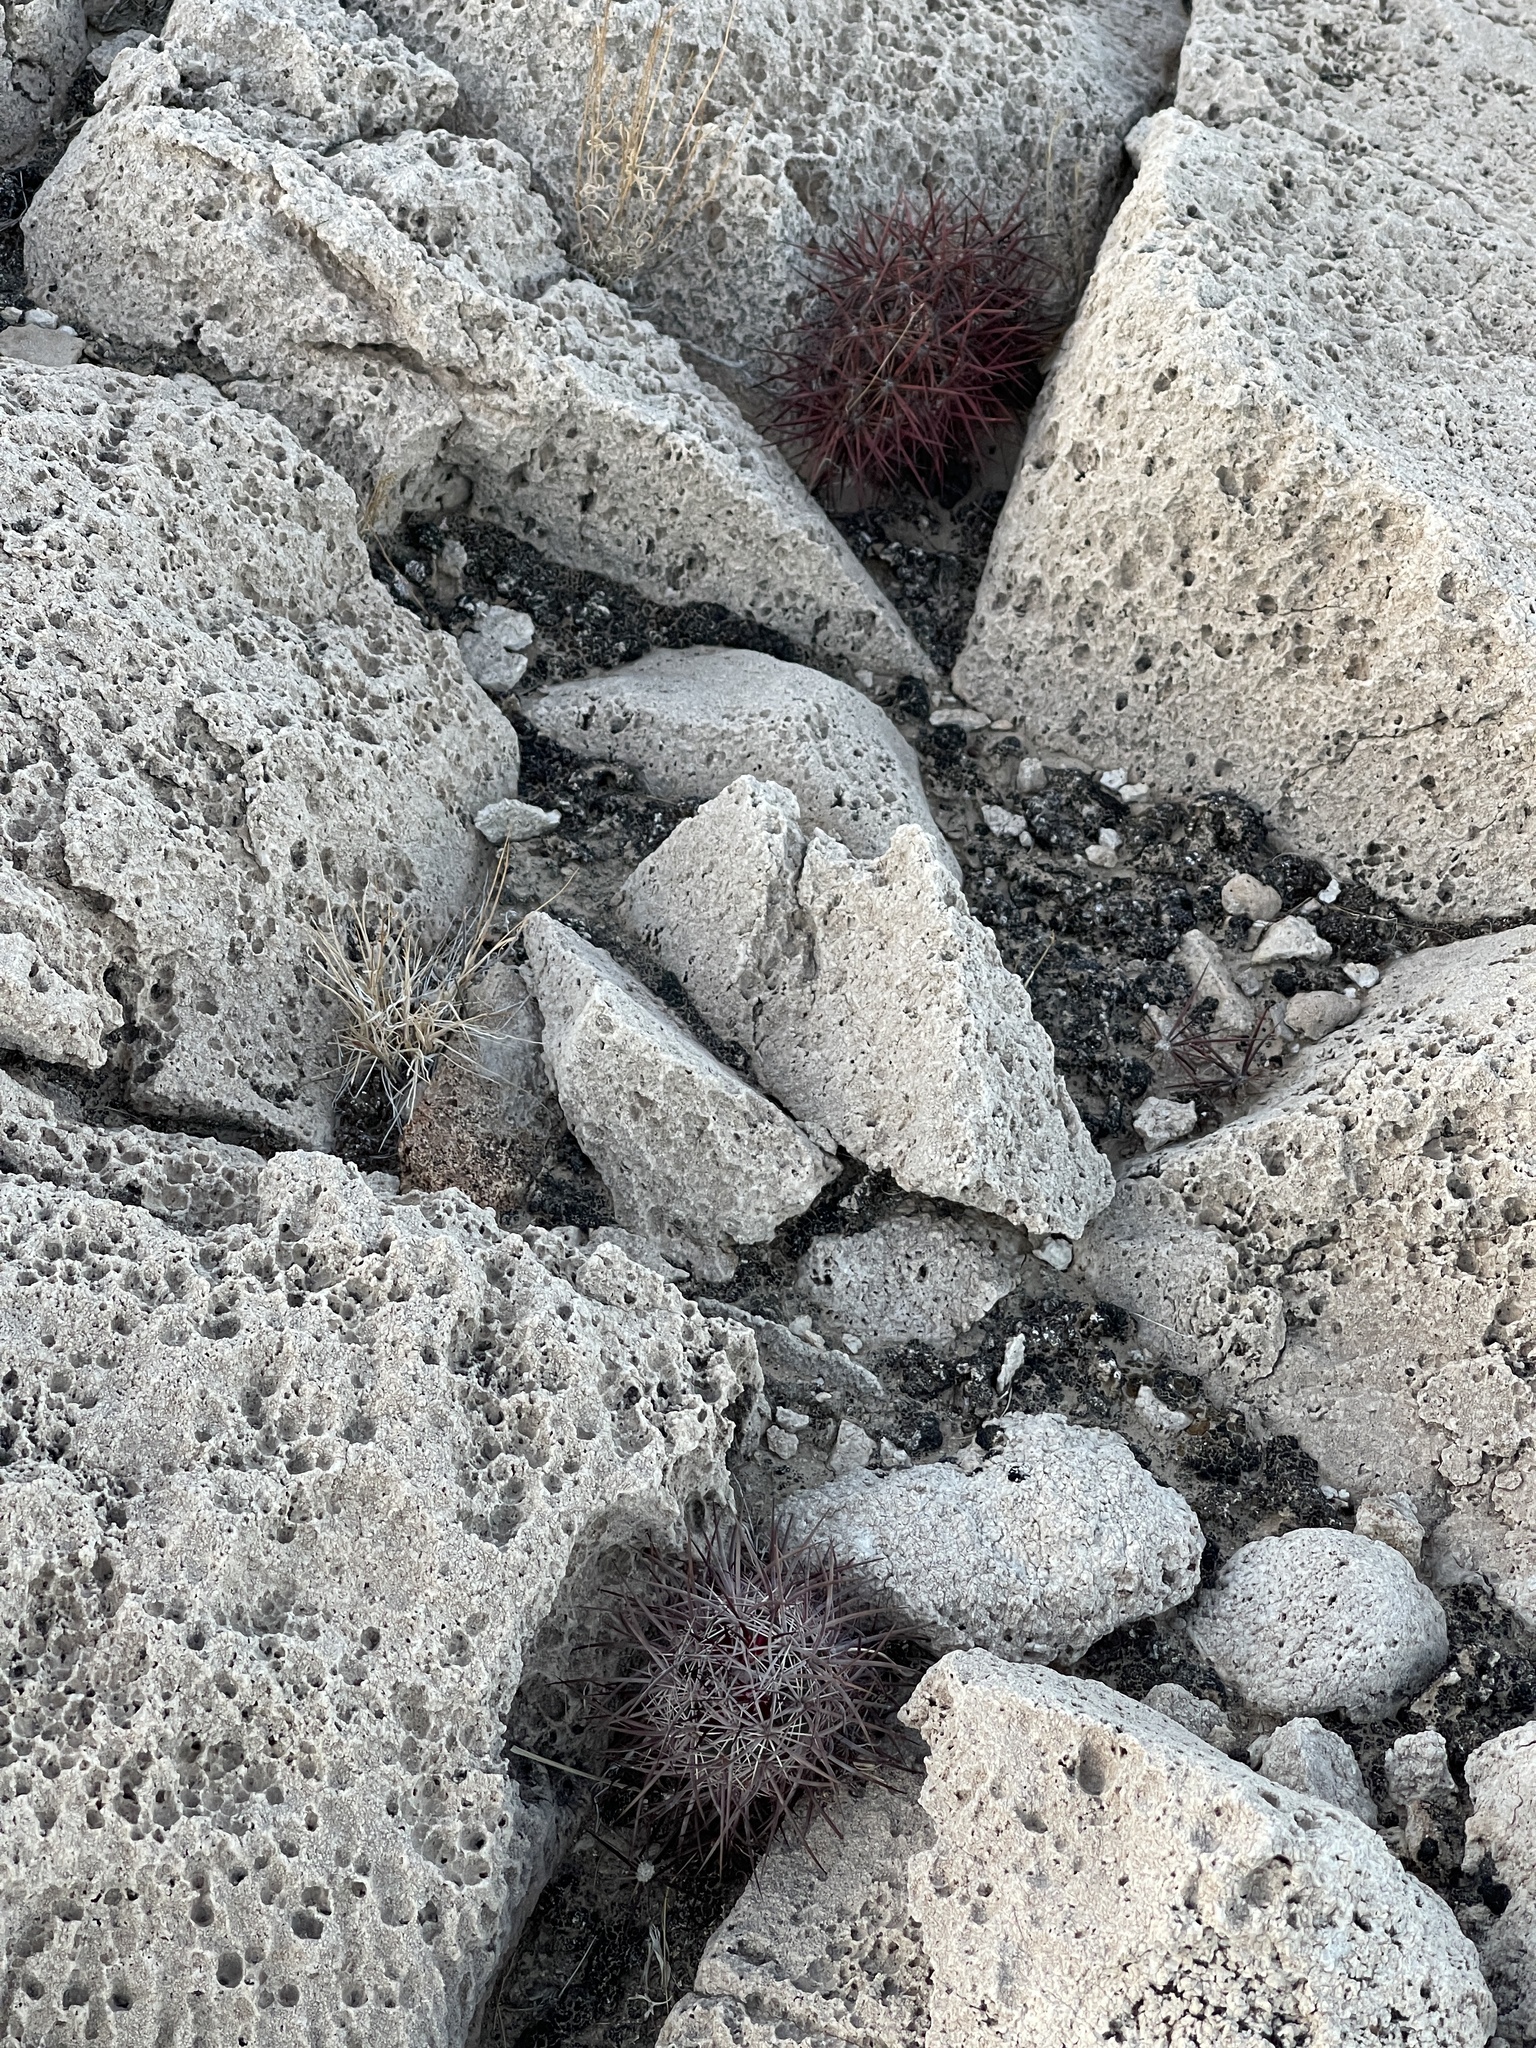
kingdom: Plantae
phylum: Tracheophyta
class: Magnoliopsida
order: Caryophyllales
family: Cactaceae
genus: Sclerocactus
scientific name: Sclerocactus johnsonii
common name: Eight-spine fishhook cactus
